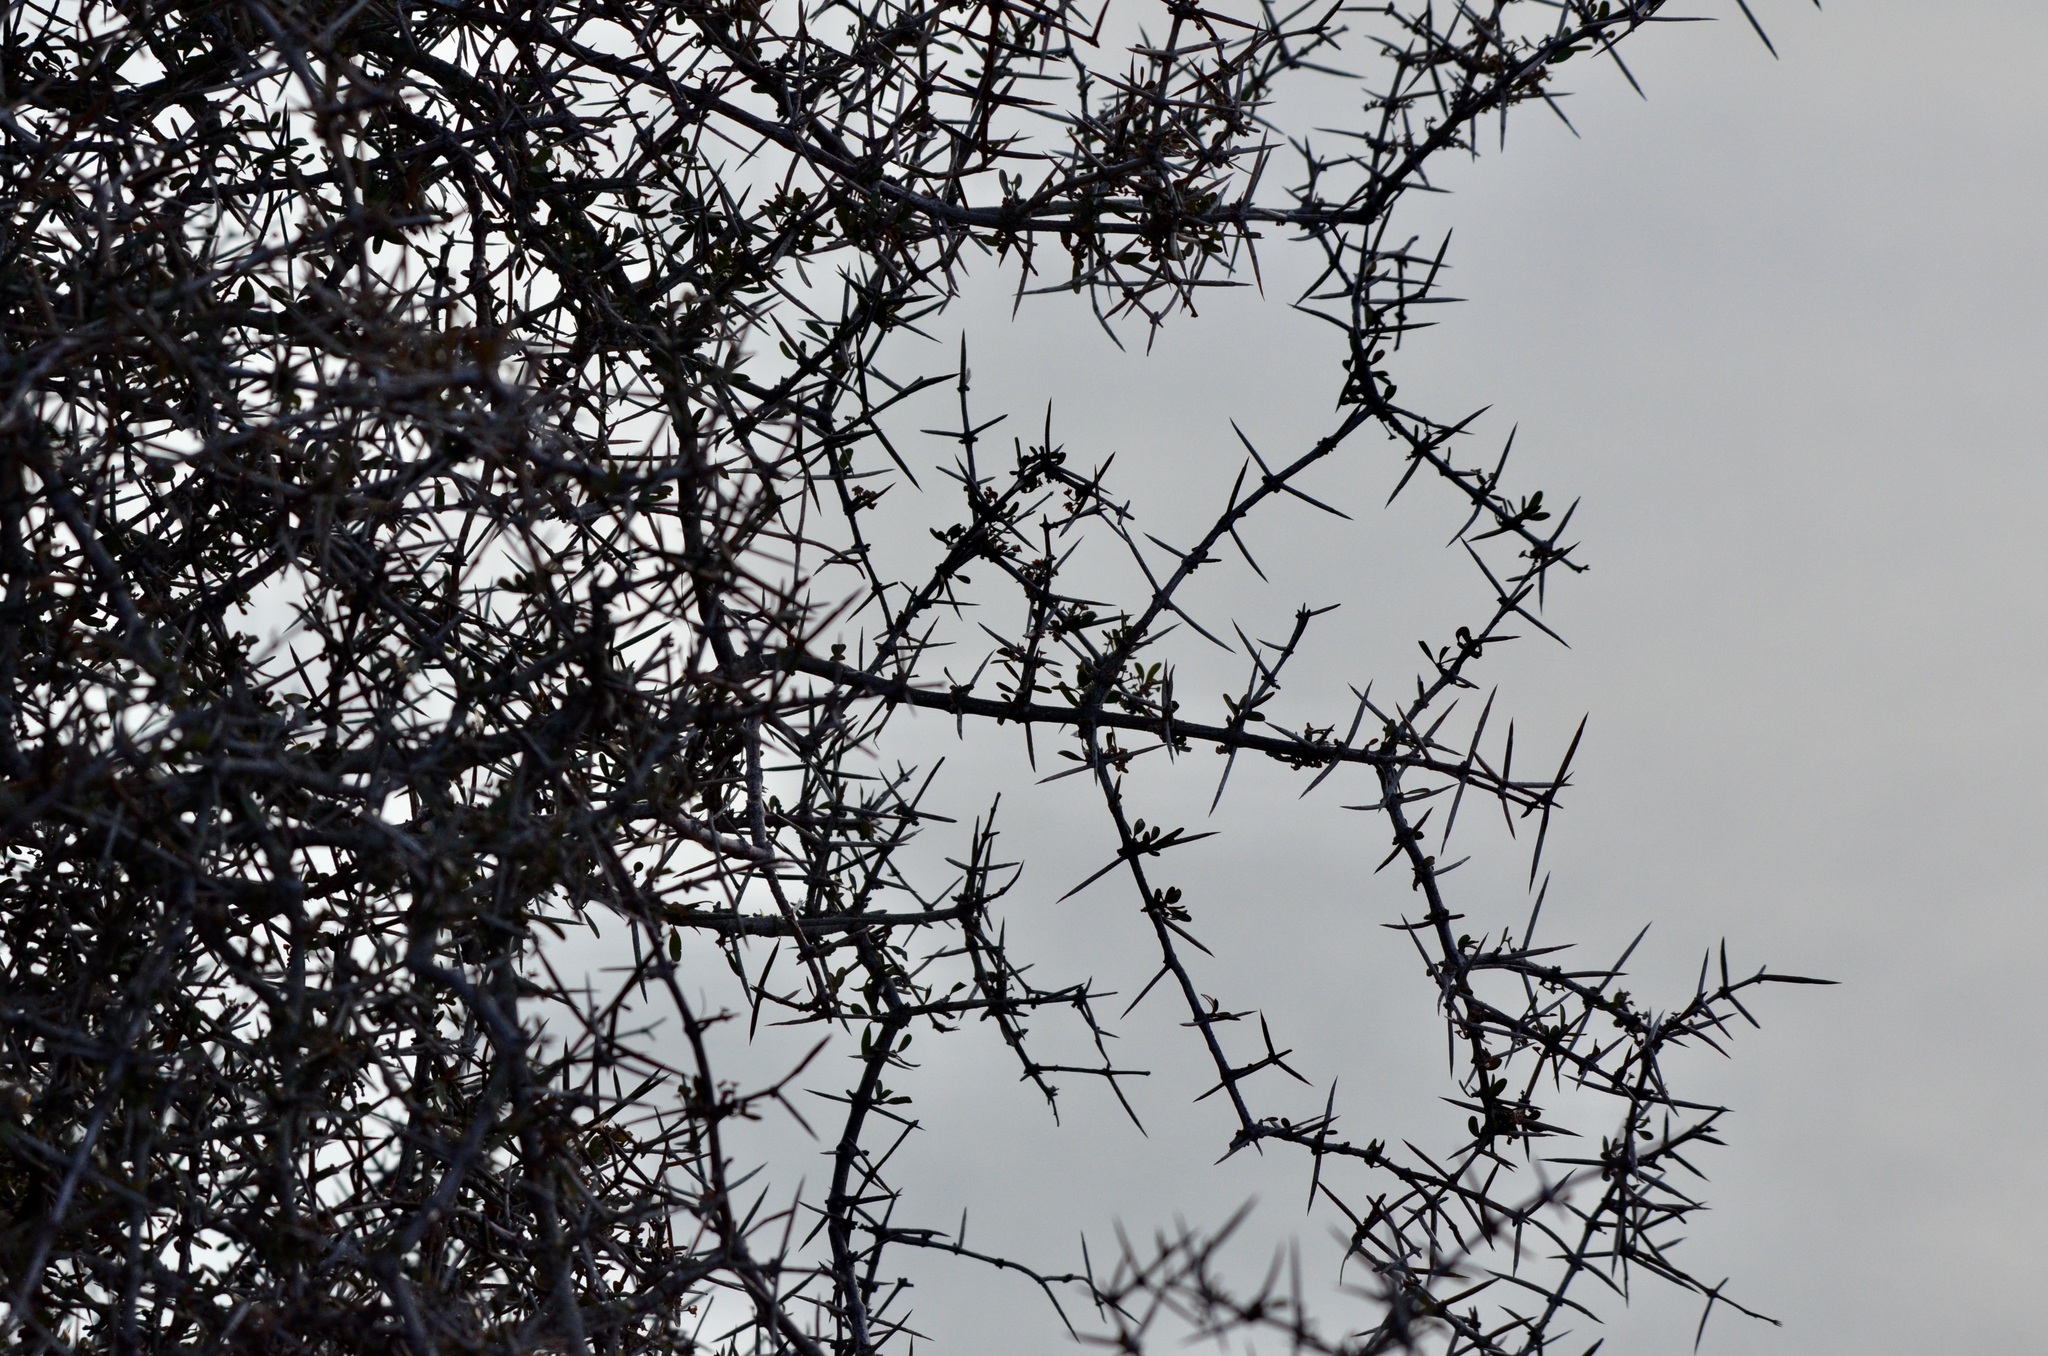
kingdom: Plantae
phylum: Tracheophyta
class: Magnoliopsida
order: Rosales
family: Rhamnaceae
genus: Discaria
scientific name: Discaria toumatou
